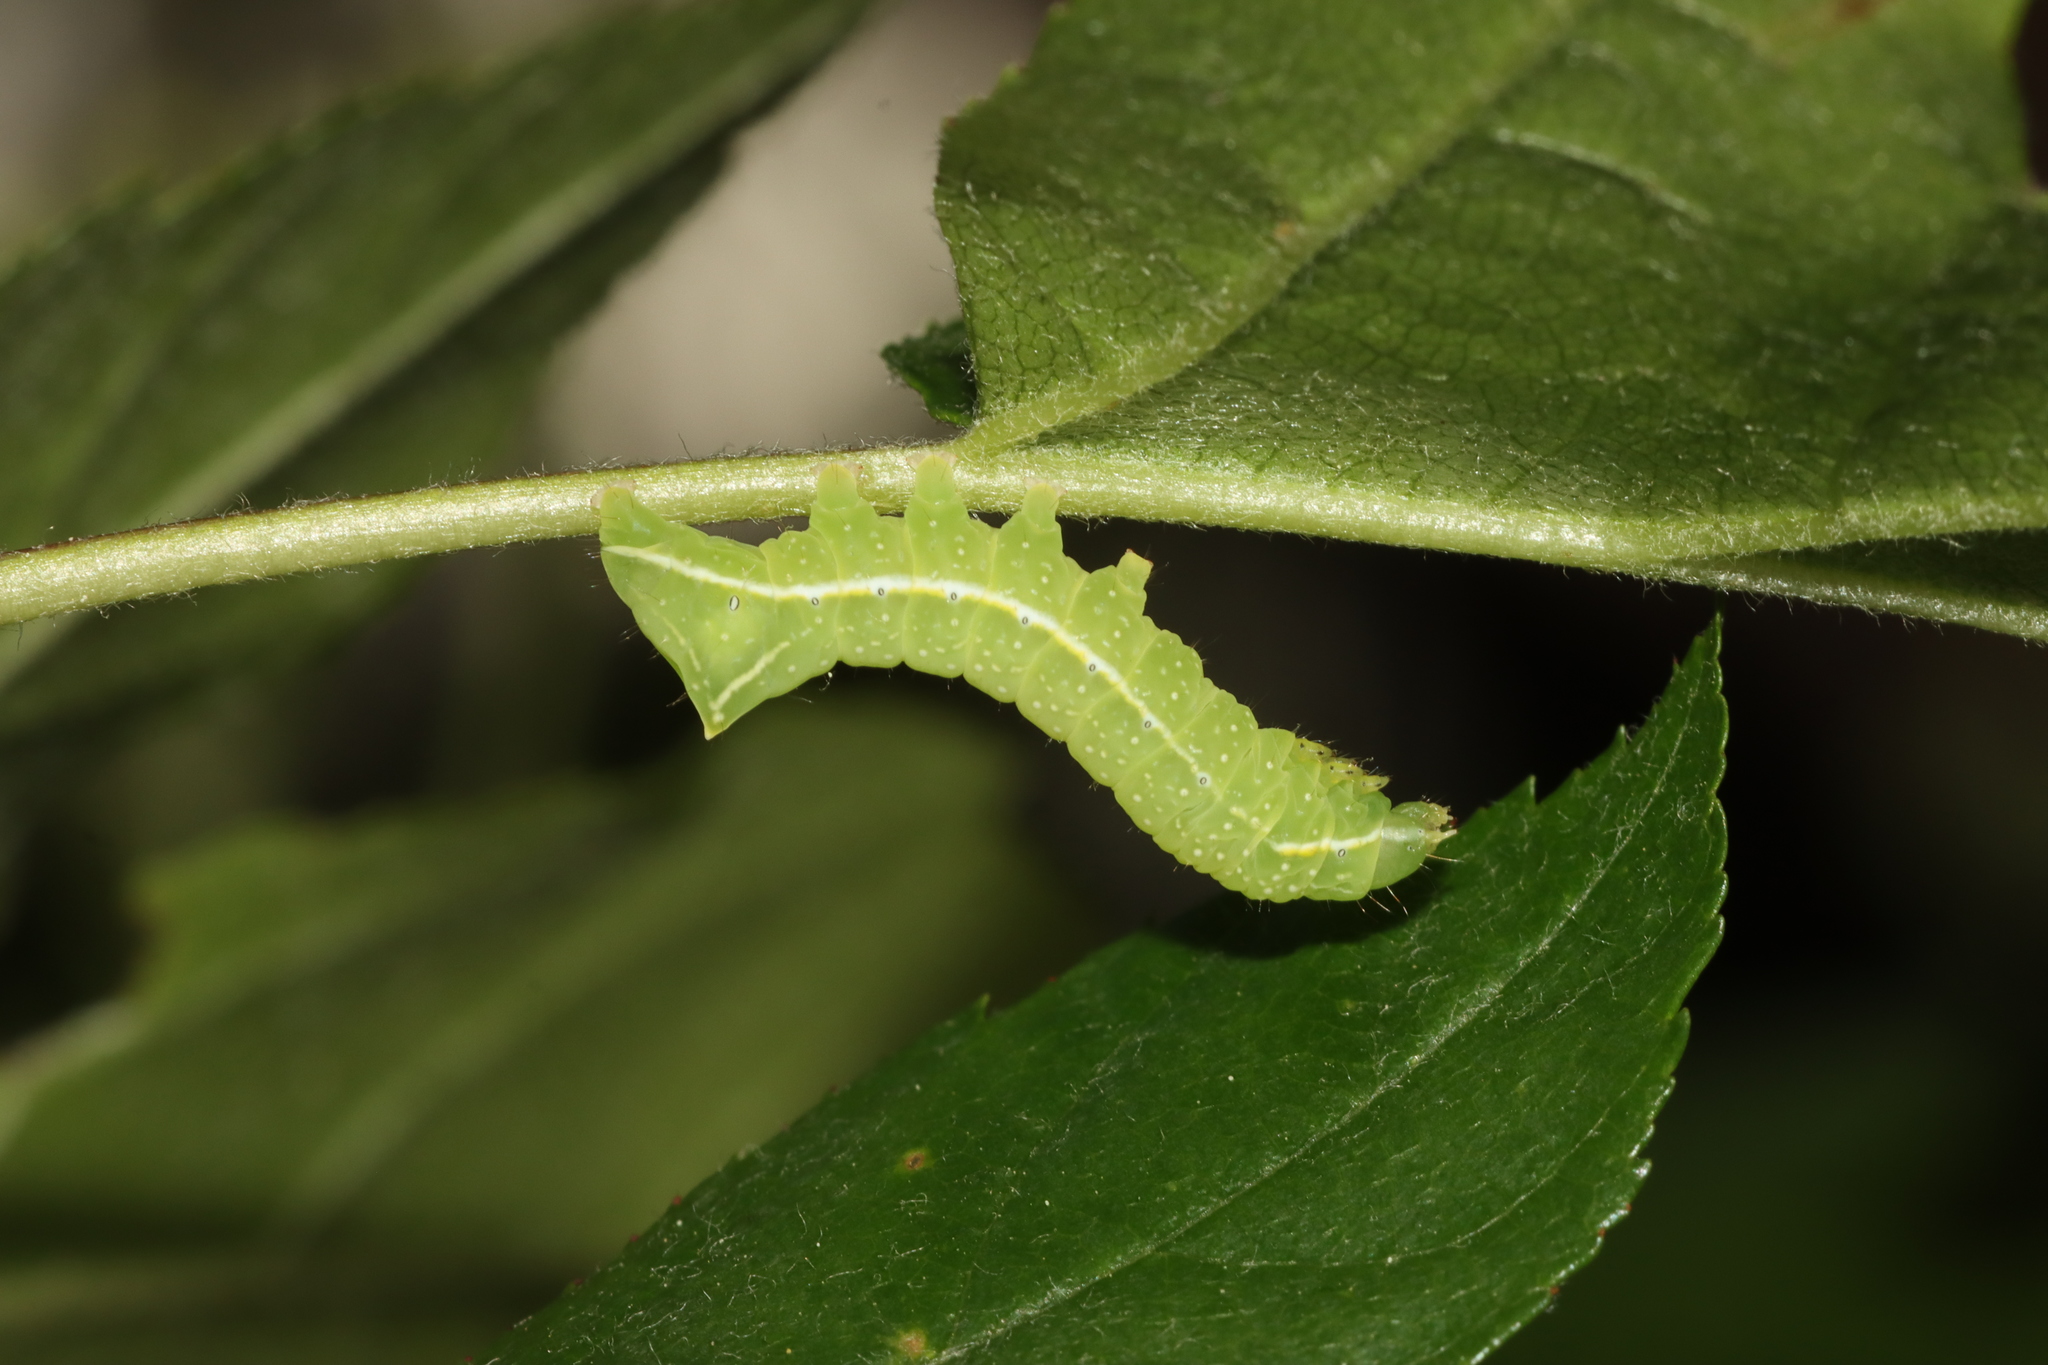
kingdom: Animalia
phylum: Arthropoda
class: Insecta
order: Lepidoptera
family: Noctuidae
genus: Amphipyra
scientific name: Amphipyra pyramidea
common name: Copper underwing
